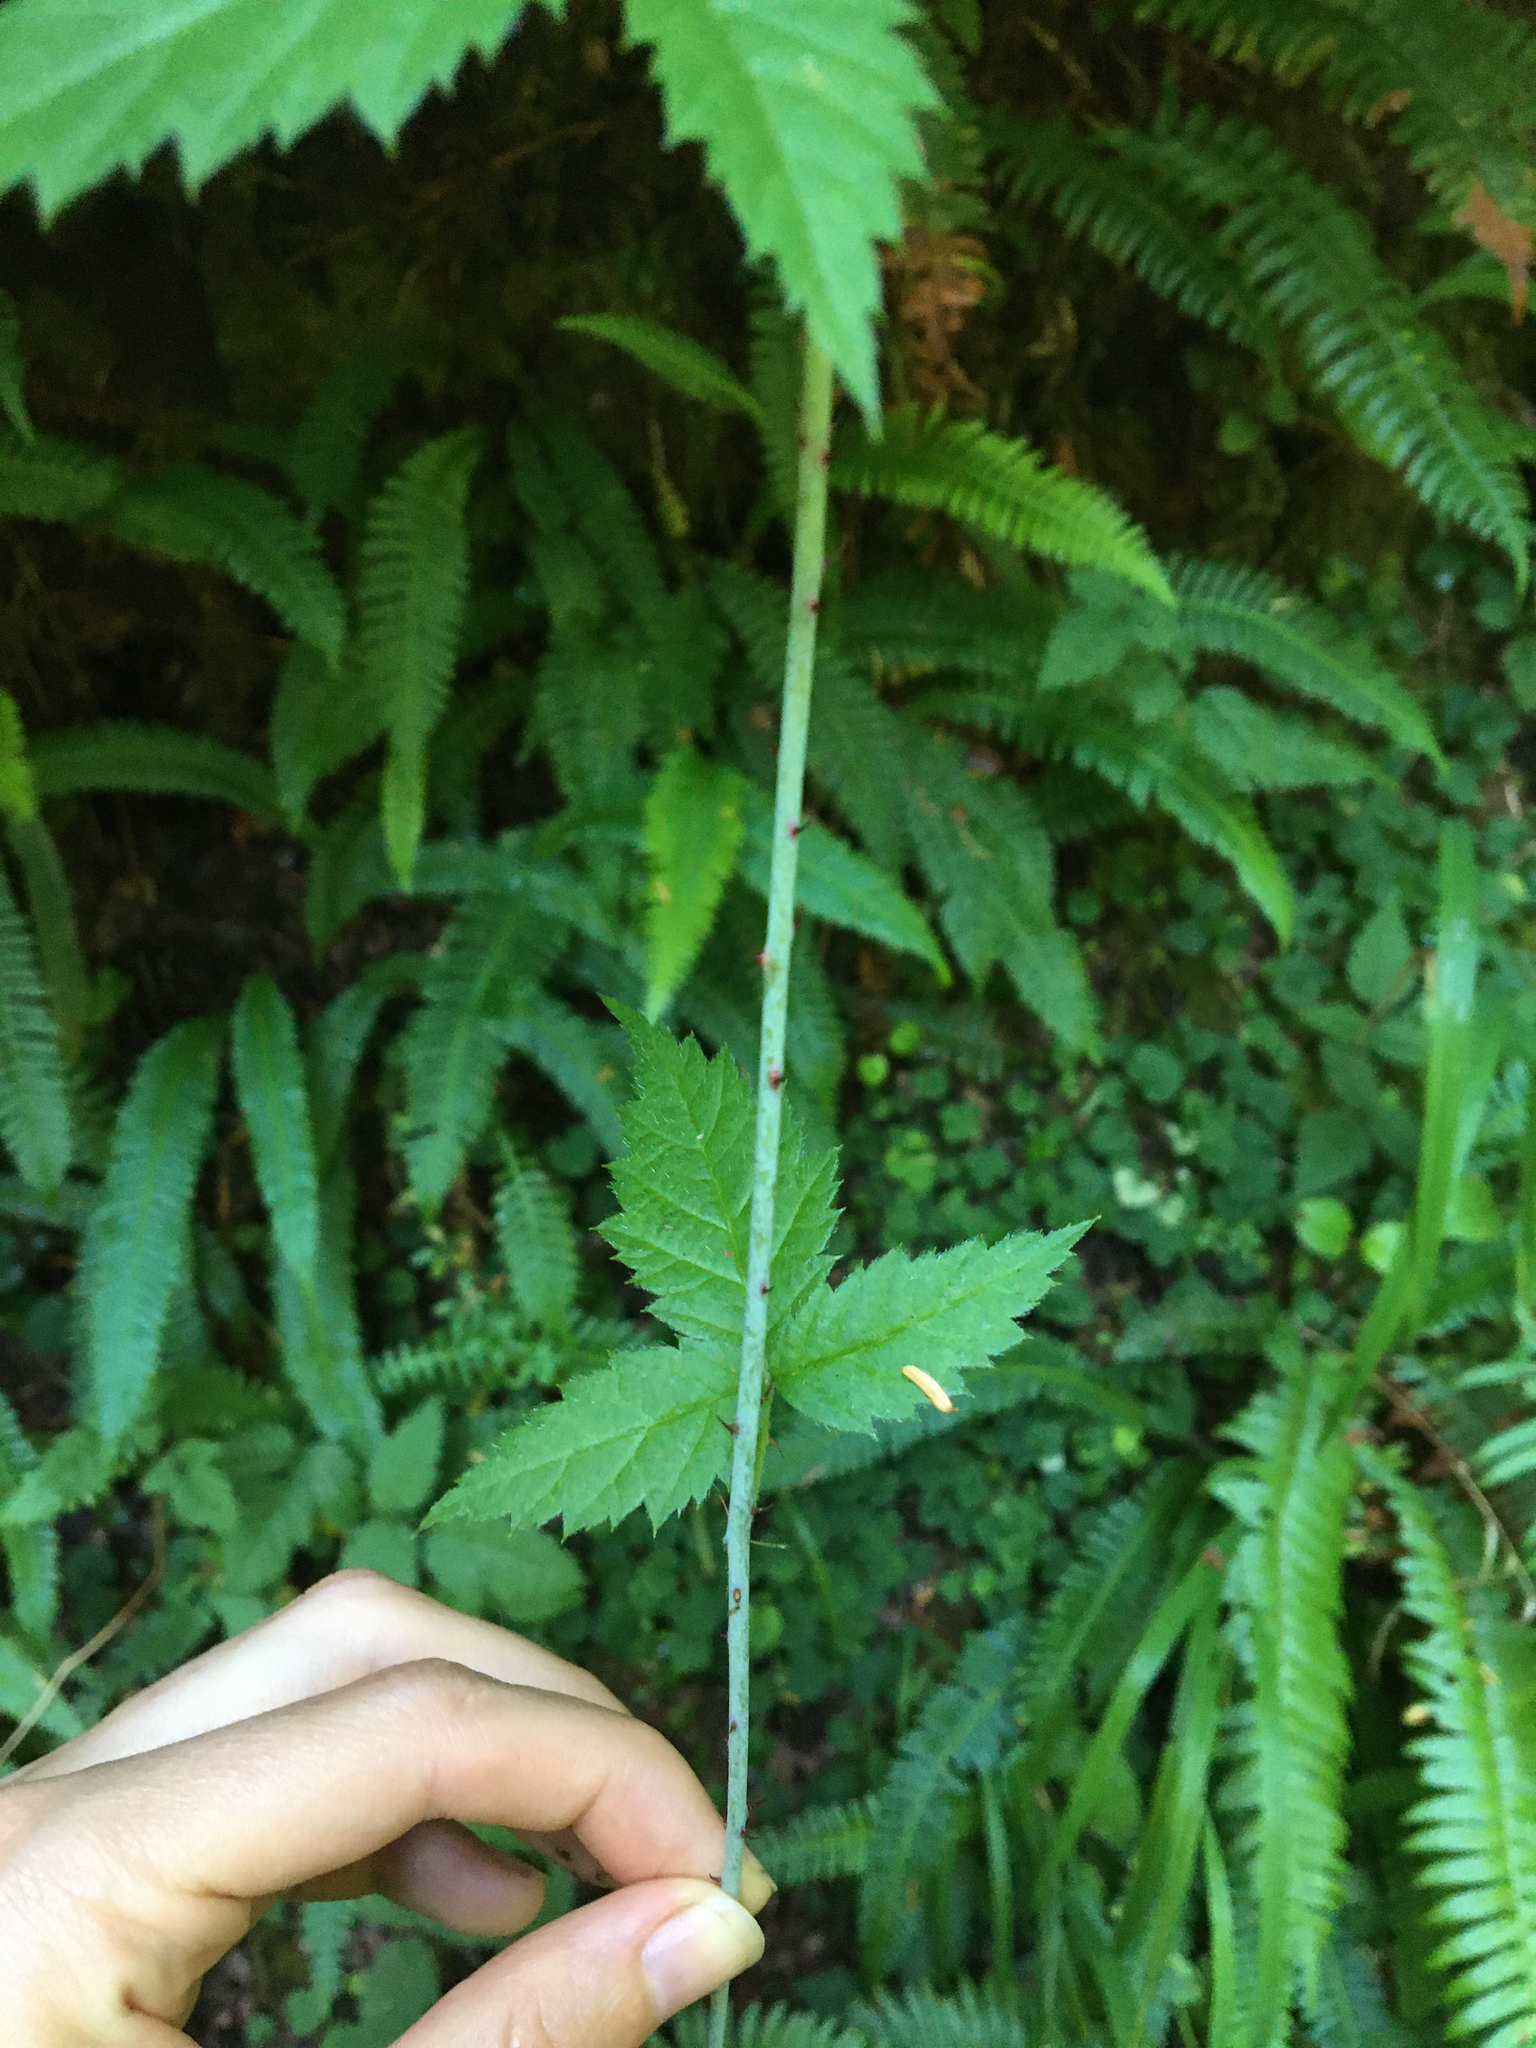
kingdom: Plantae
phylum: Tracheophyta
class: Magnoliopsida
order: Rosales
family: Rosaceae
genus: Rubus
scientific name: Rubus ursinus
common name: Pacific blackberry
